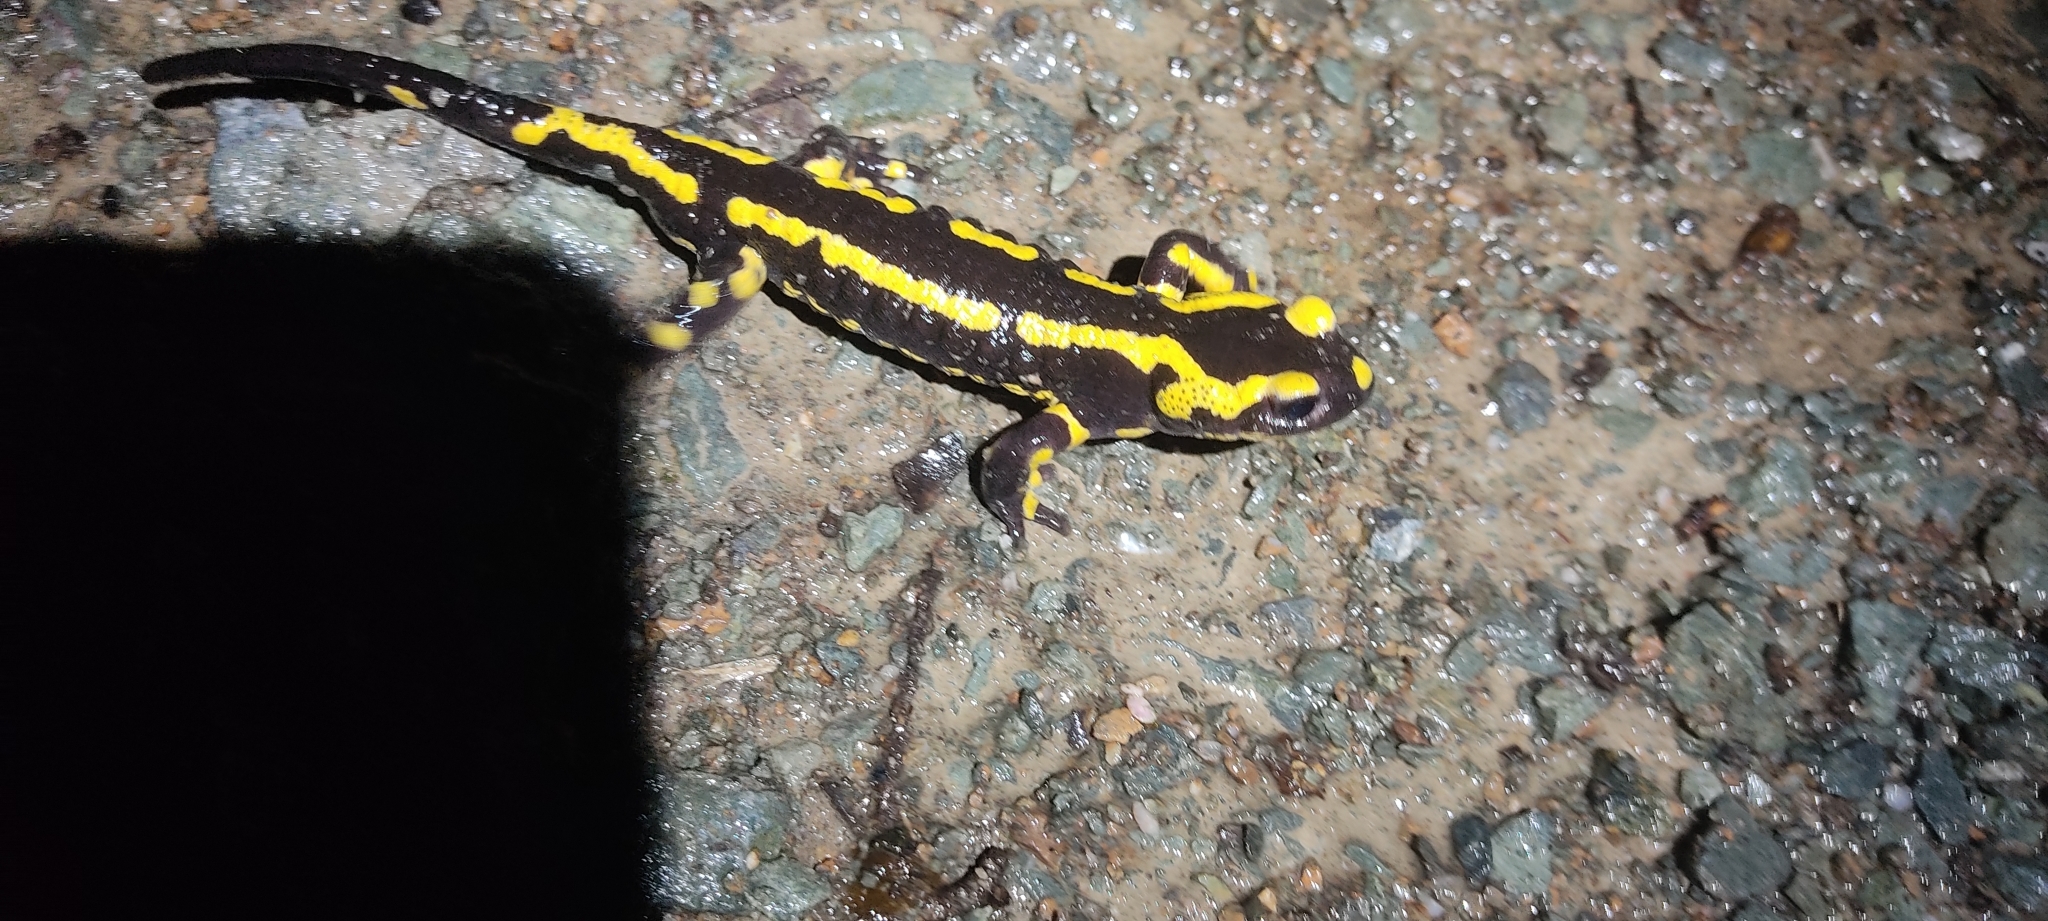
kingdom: Animalia
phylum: Chordata
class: Amphibia
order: Caudata
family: Salamandridae
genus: Salamandra
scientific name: Salamandra salamandra
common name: Fire salamander
